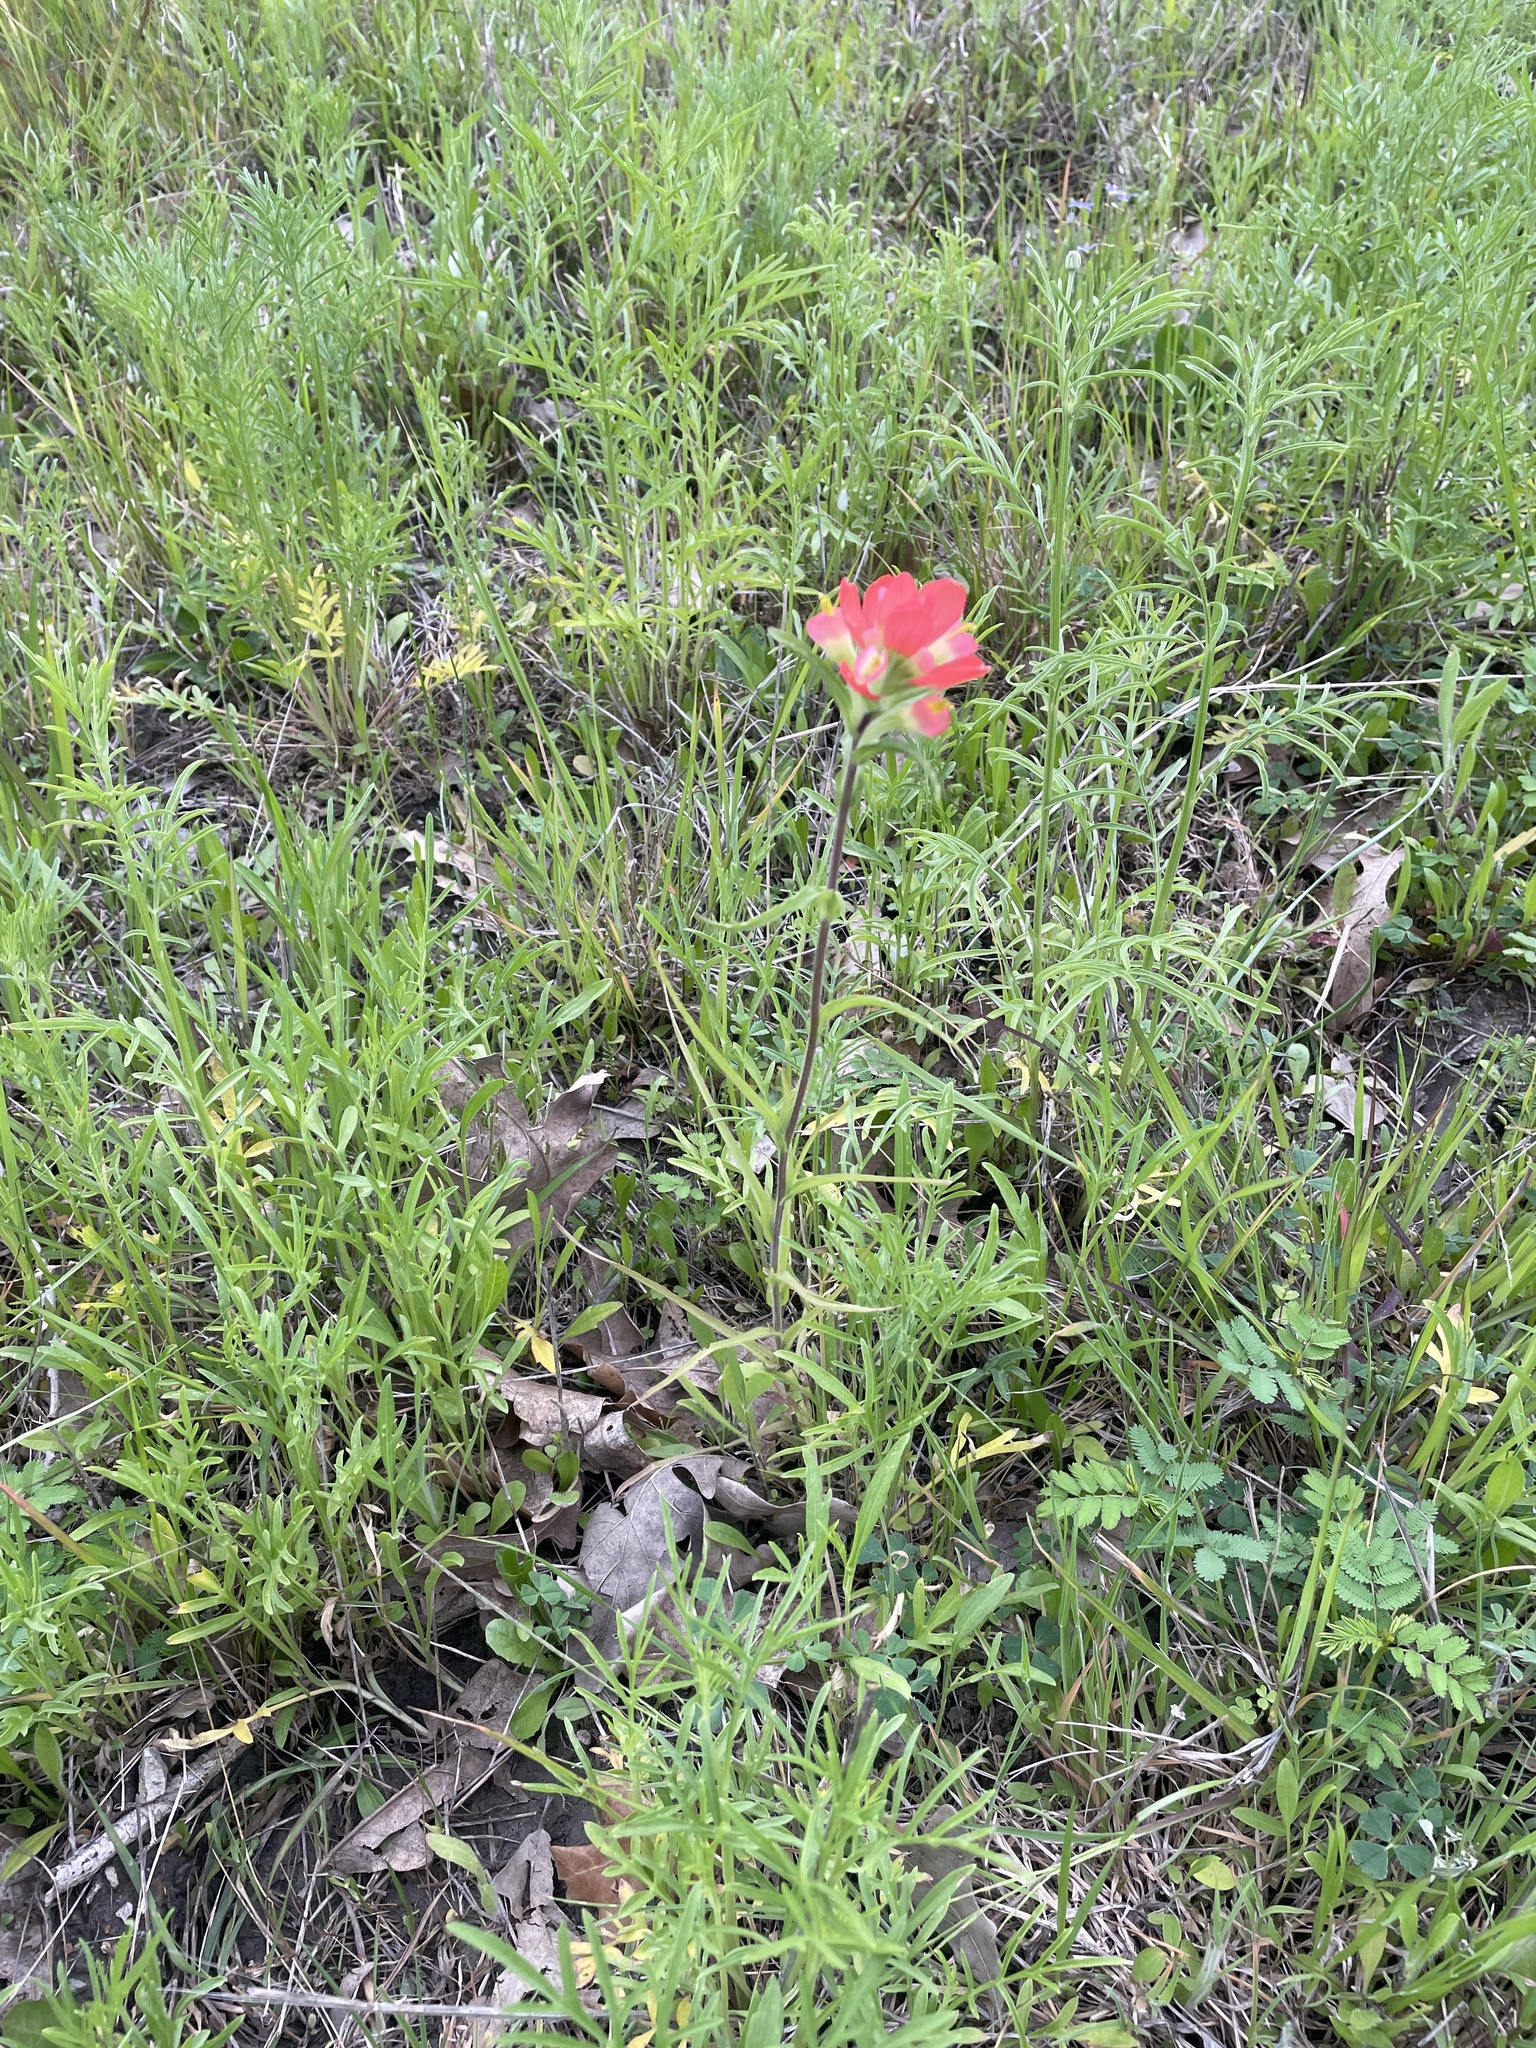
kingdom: Plantae
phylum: Tracheophyta
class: Magnoliopsida
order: Lamiales
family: Orobanchaceae
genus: Castilleja
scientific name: Castilleja indivisa
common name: Texas paintbrush
